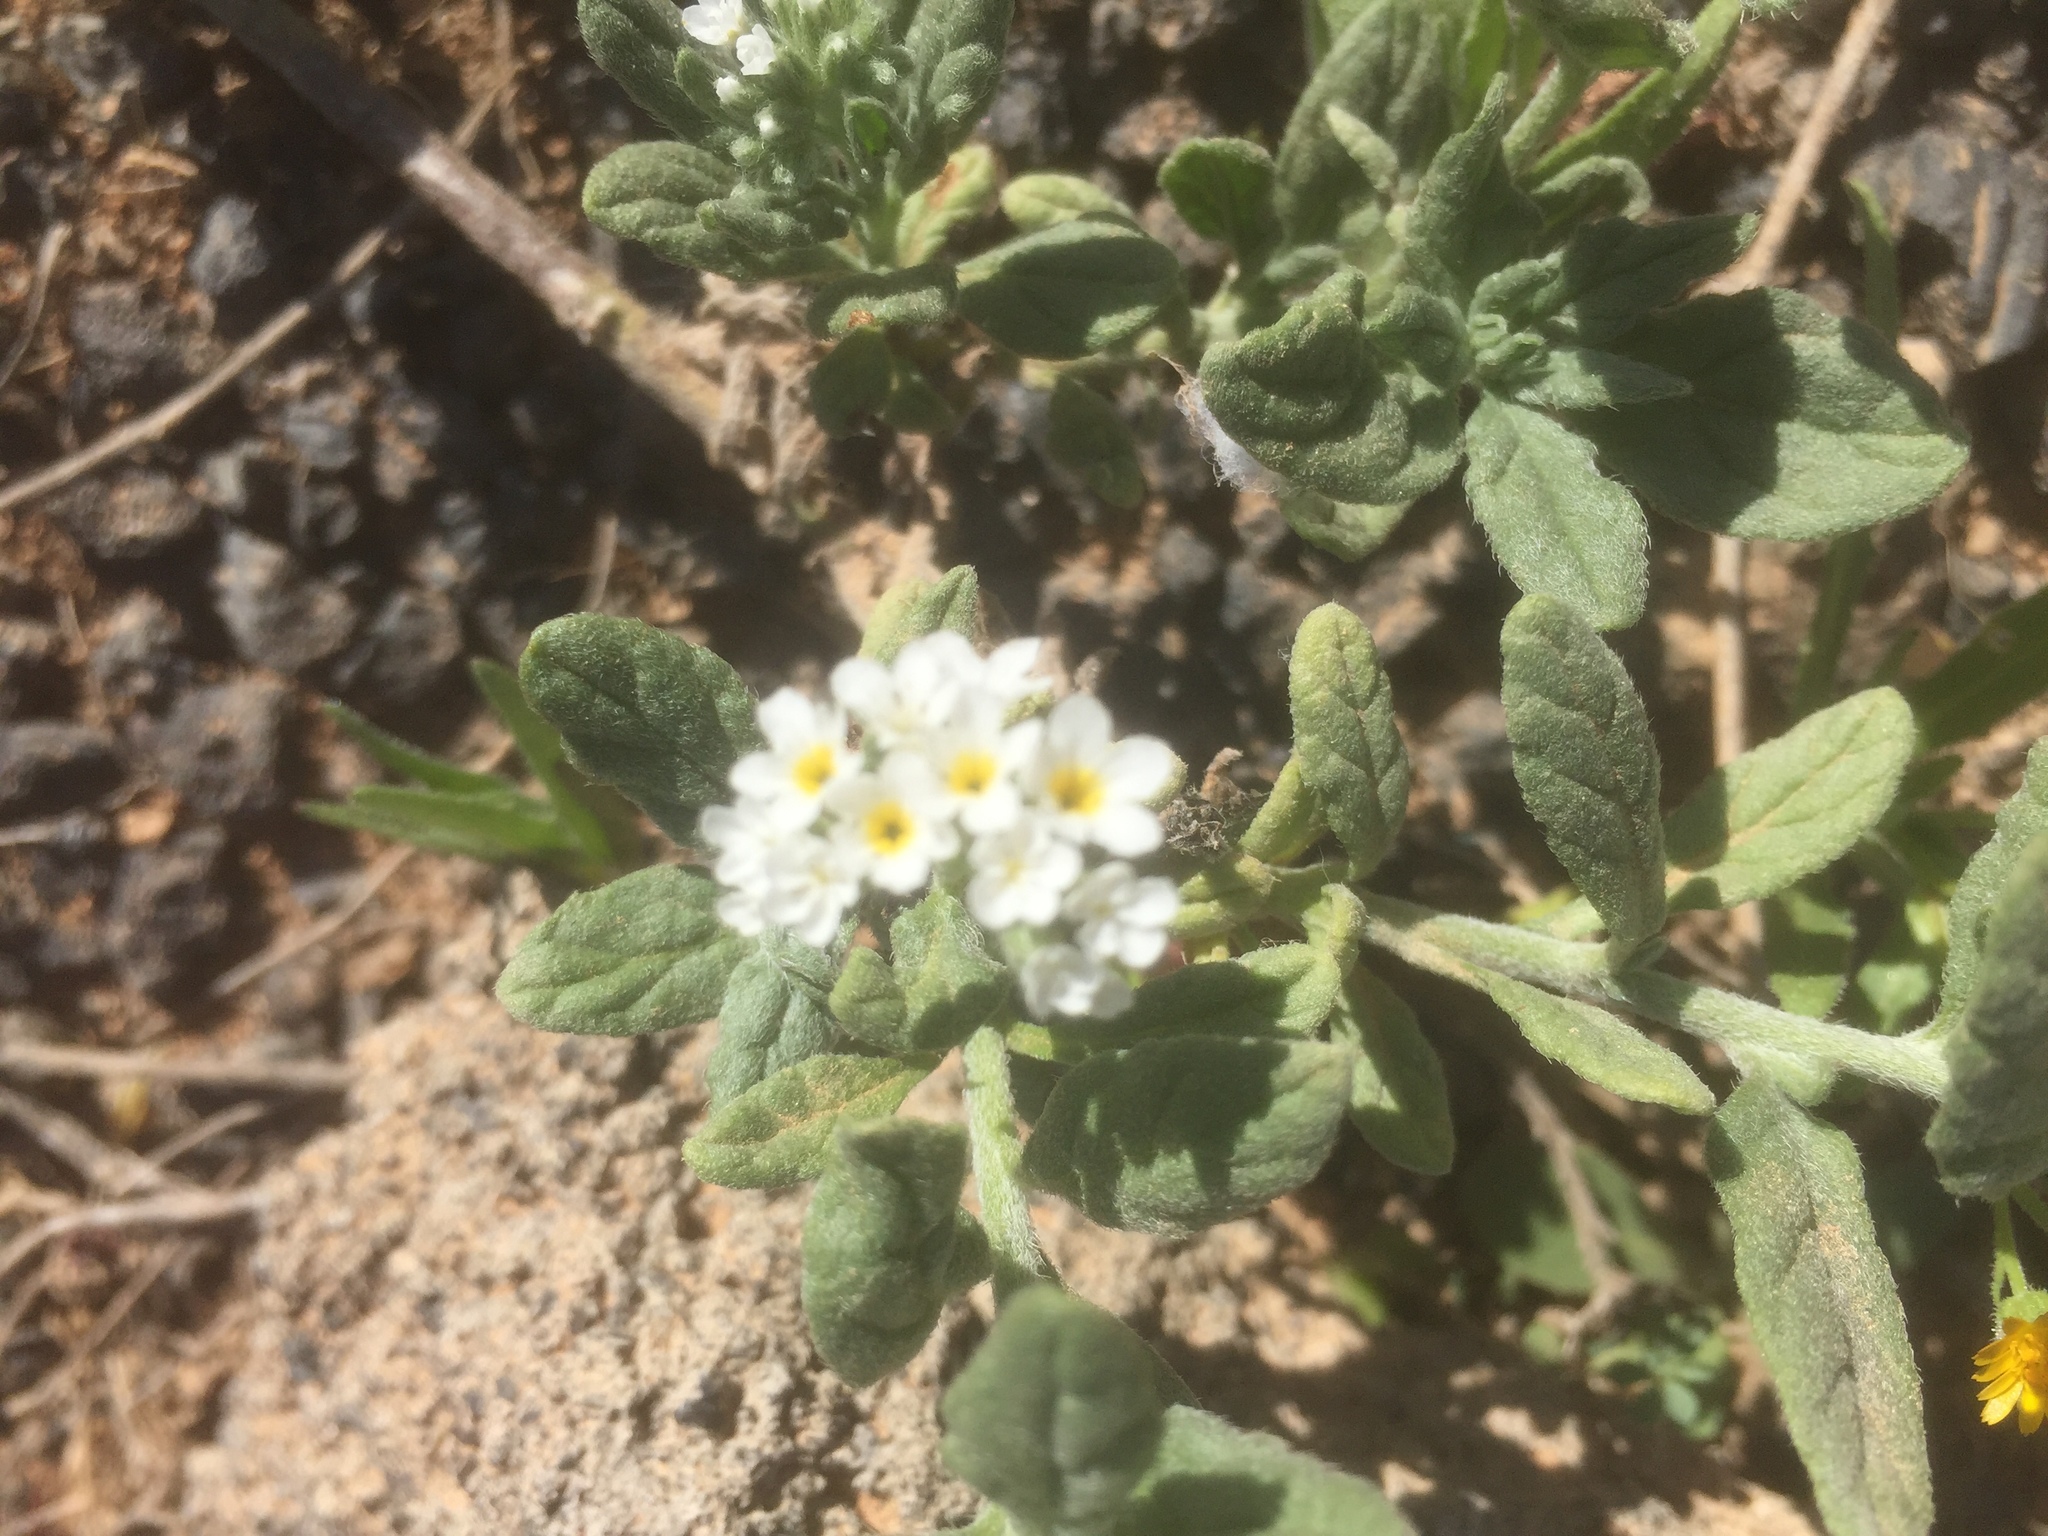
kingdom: Plantae
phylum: Tracheophyta
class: Magnoliopsida
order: Boraginales
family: Heliotropiaceae
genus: Heliotropium
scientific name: Heliotropium europaeum
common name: European heliotrope
